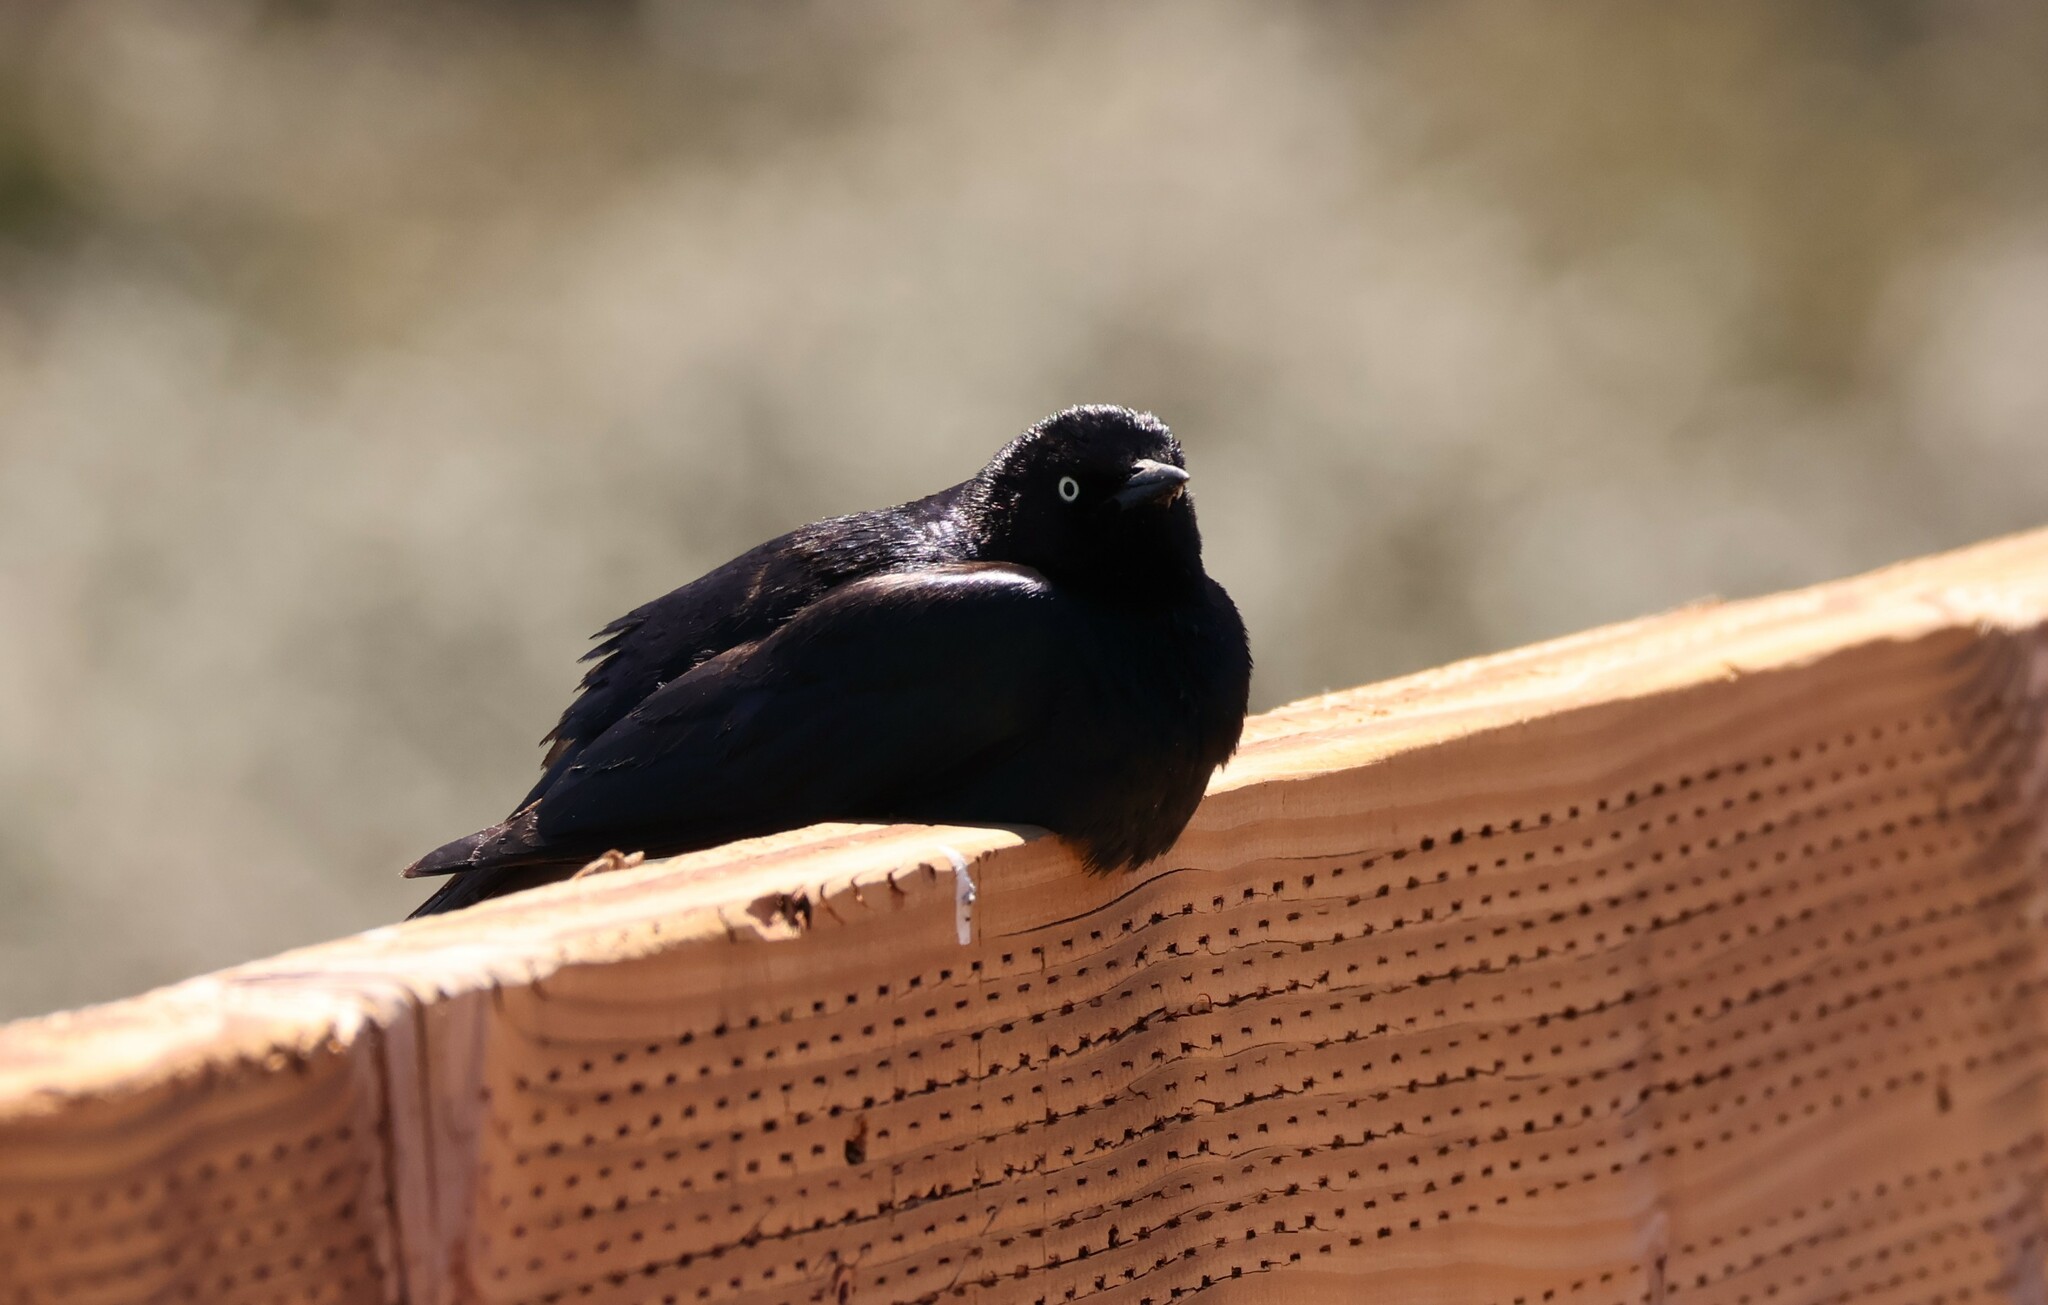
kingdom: Animalia
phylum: Chordata
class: Aves
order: Passeriformes
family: Icteridae
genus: Euphagus
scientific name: Euphagus cyanocephalus
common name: Brewer's blackbird
